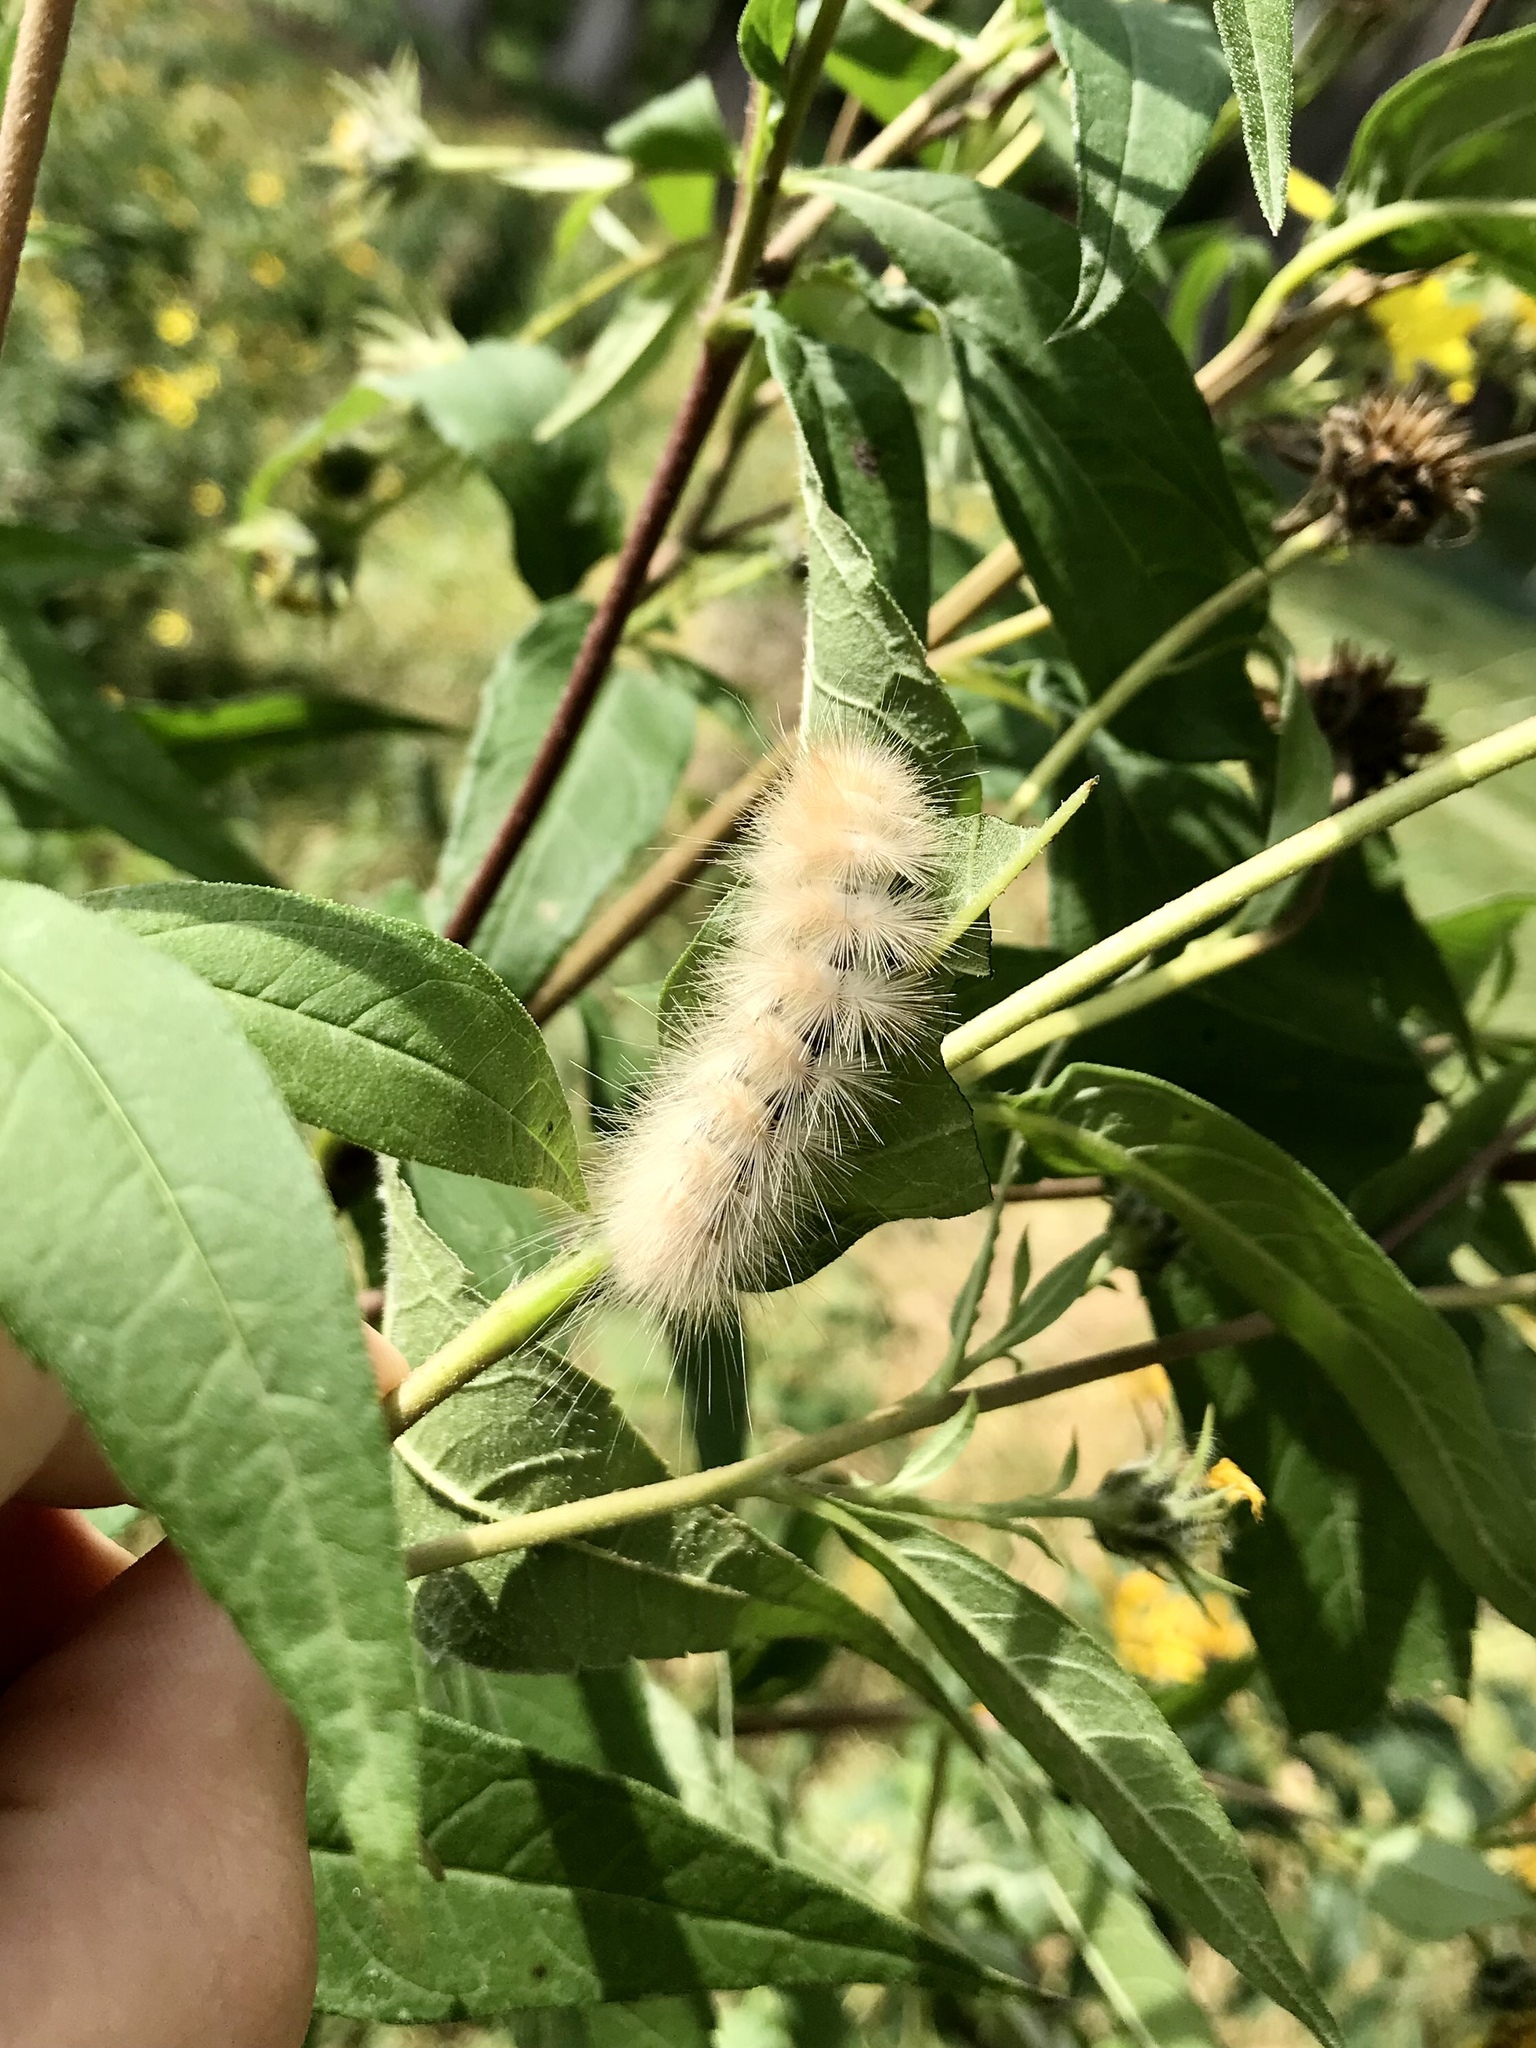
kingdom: Animalia
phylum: Arthropoda
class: Insecta
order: Lepidoptera
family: Erebidae
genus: Spilosoma
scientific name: Spilosoma virginica
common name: Virginia tiger moth
